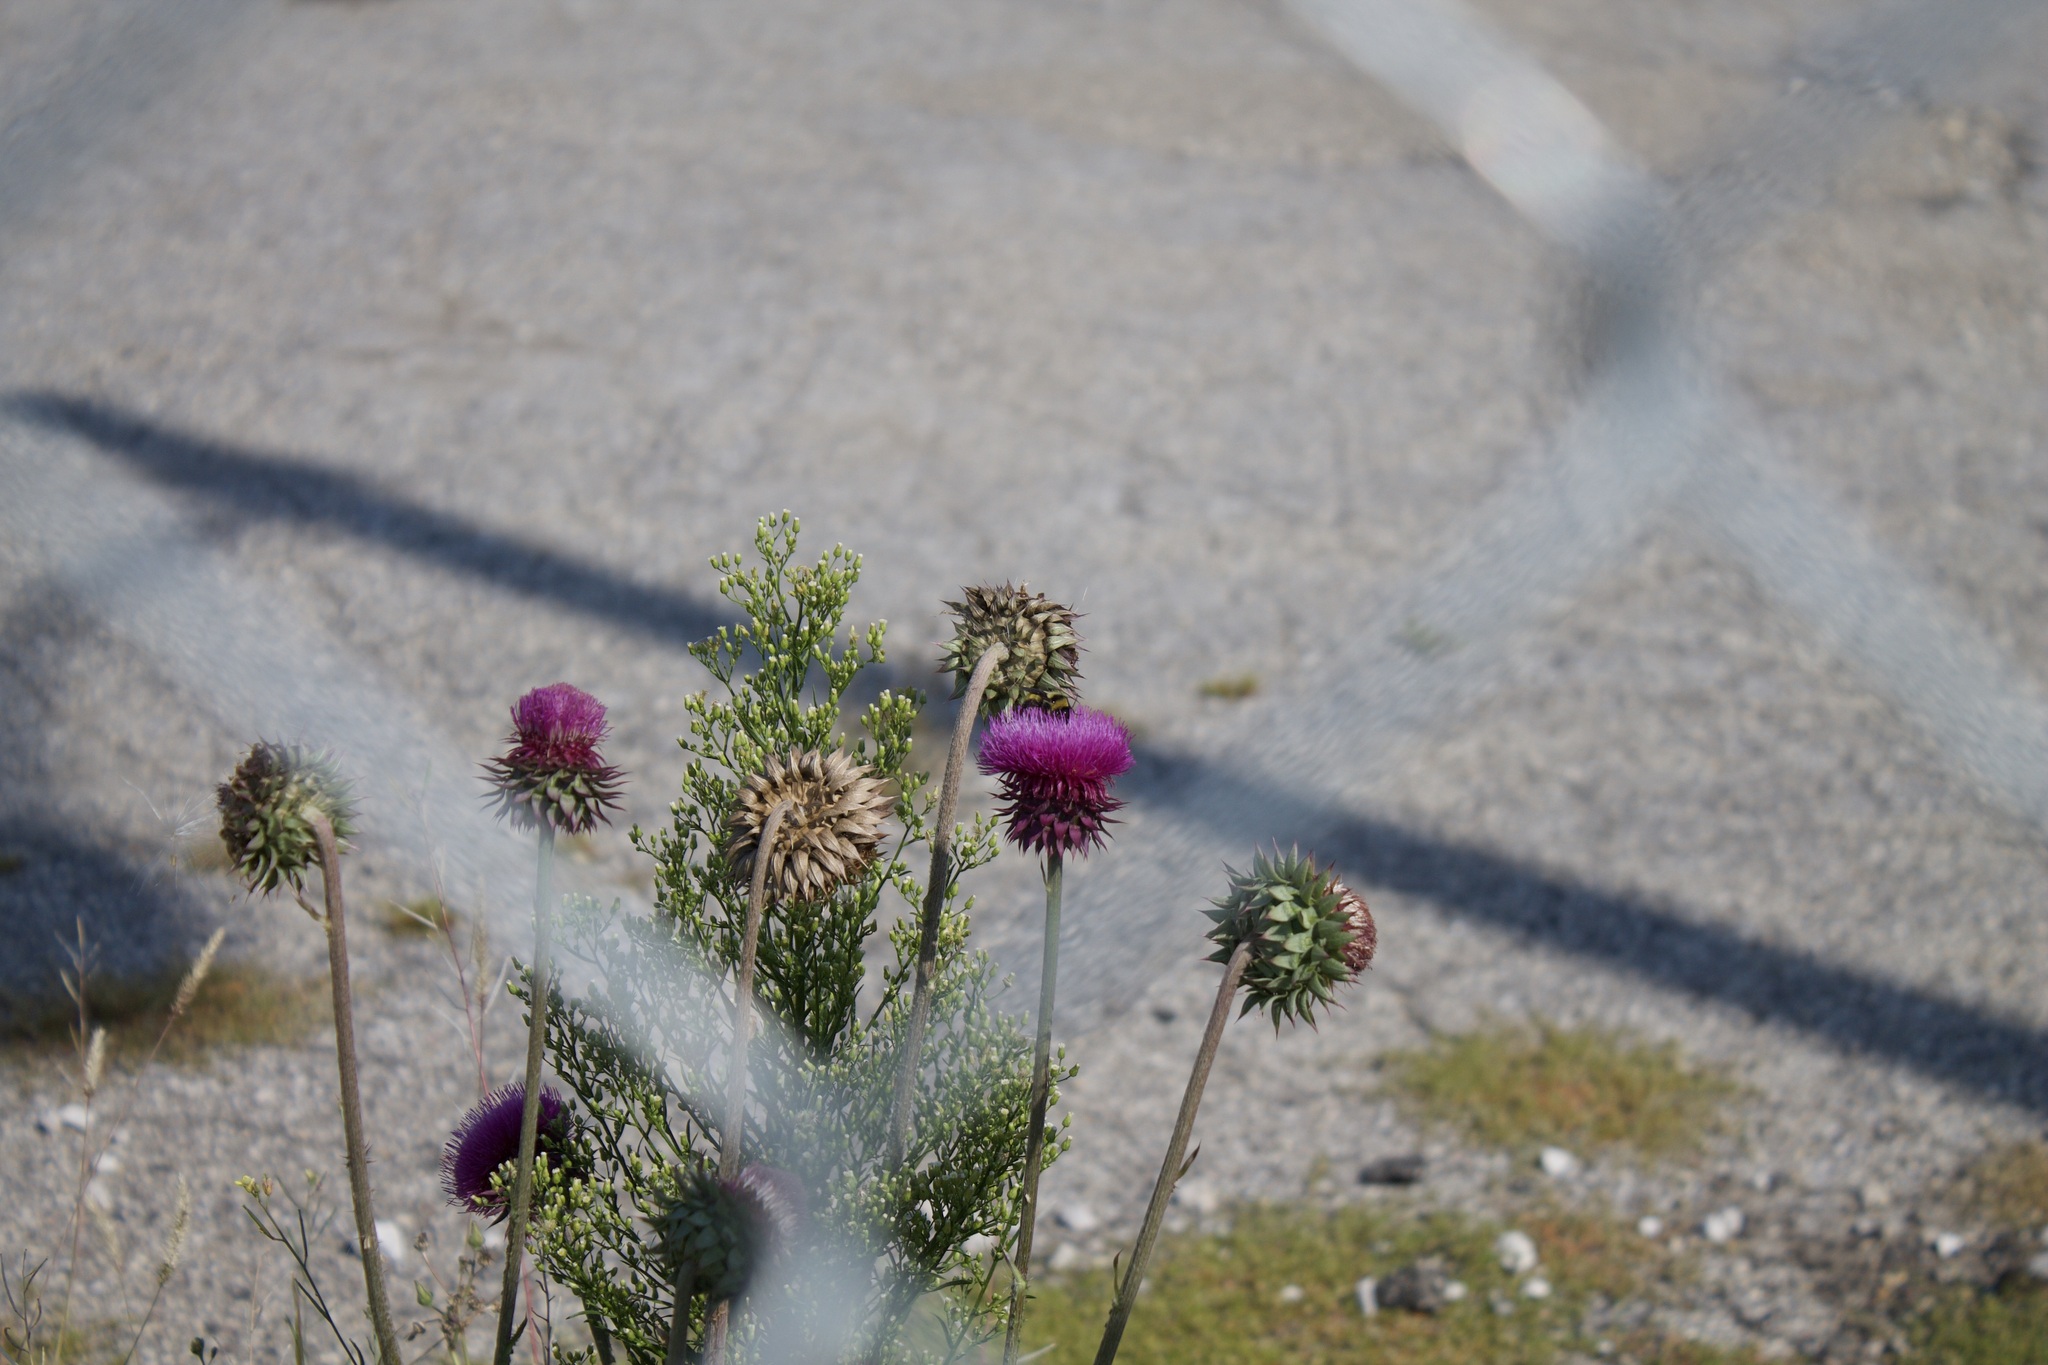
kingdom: Animalia
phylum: Arthropoda
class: Insecta
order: Hymenoptera
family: Apidae
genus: Bombus
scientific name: Bombus fervidus
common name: Yellow bumble bee
